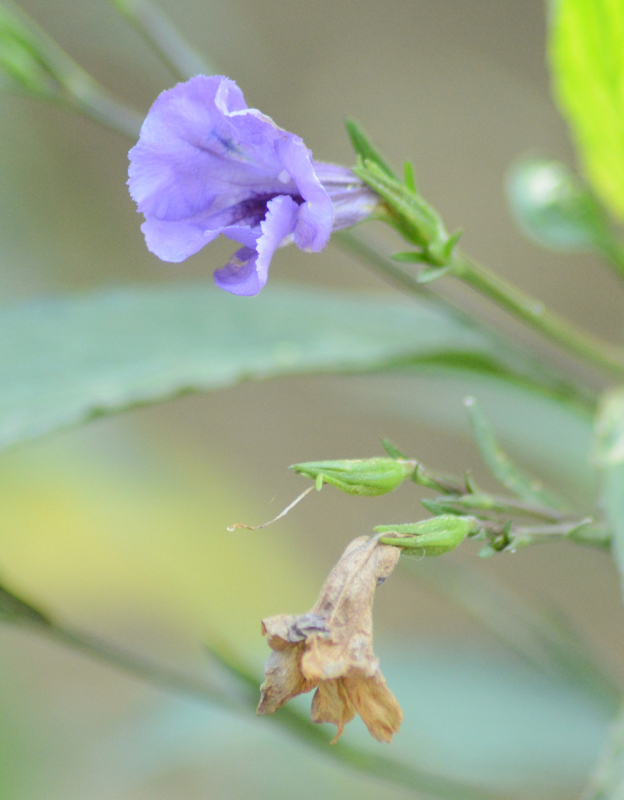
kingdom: Plantae
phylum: Tracheophyta
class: Magnoliopsida
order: Lamiales
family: Acanthaceae
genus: Ruellia
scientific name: Ruellia simplex
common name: Softseed wild petunia
